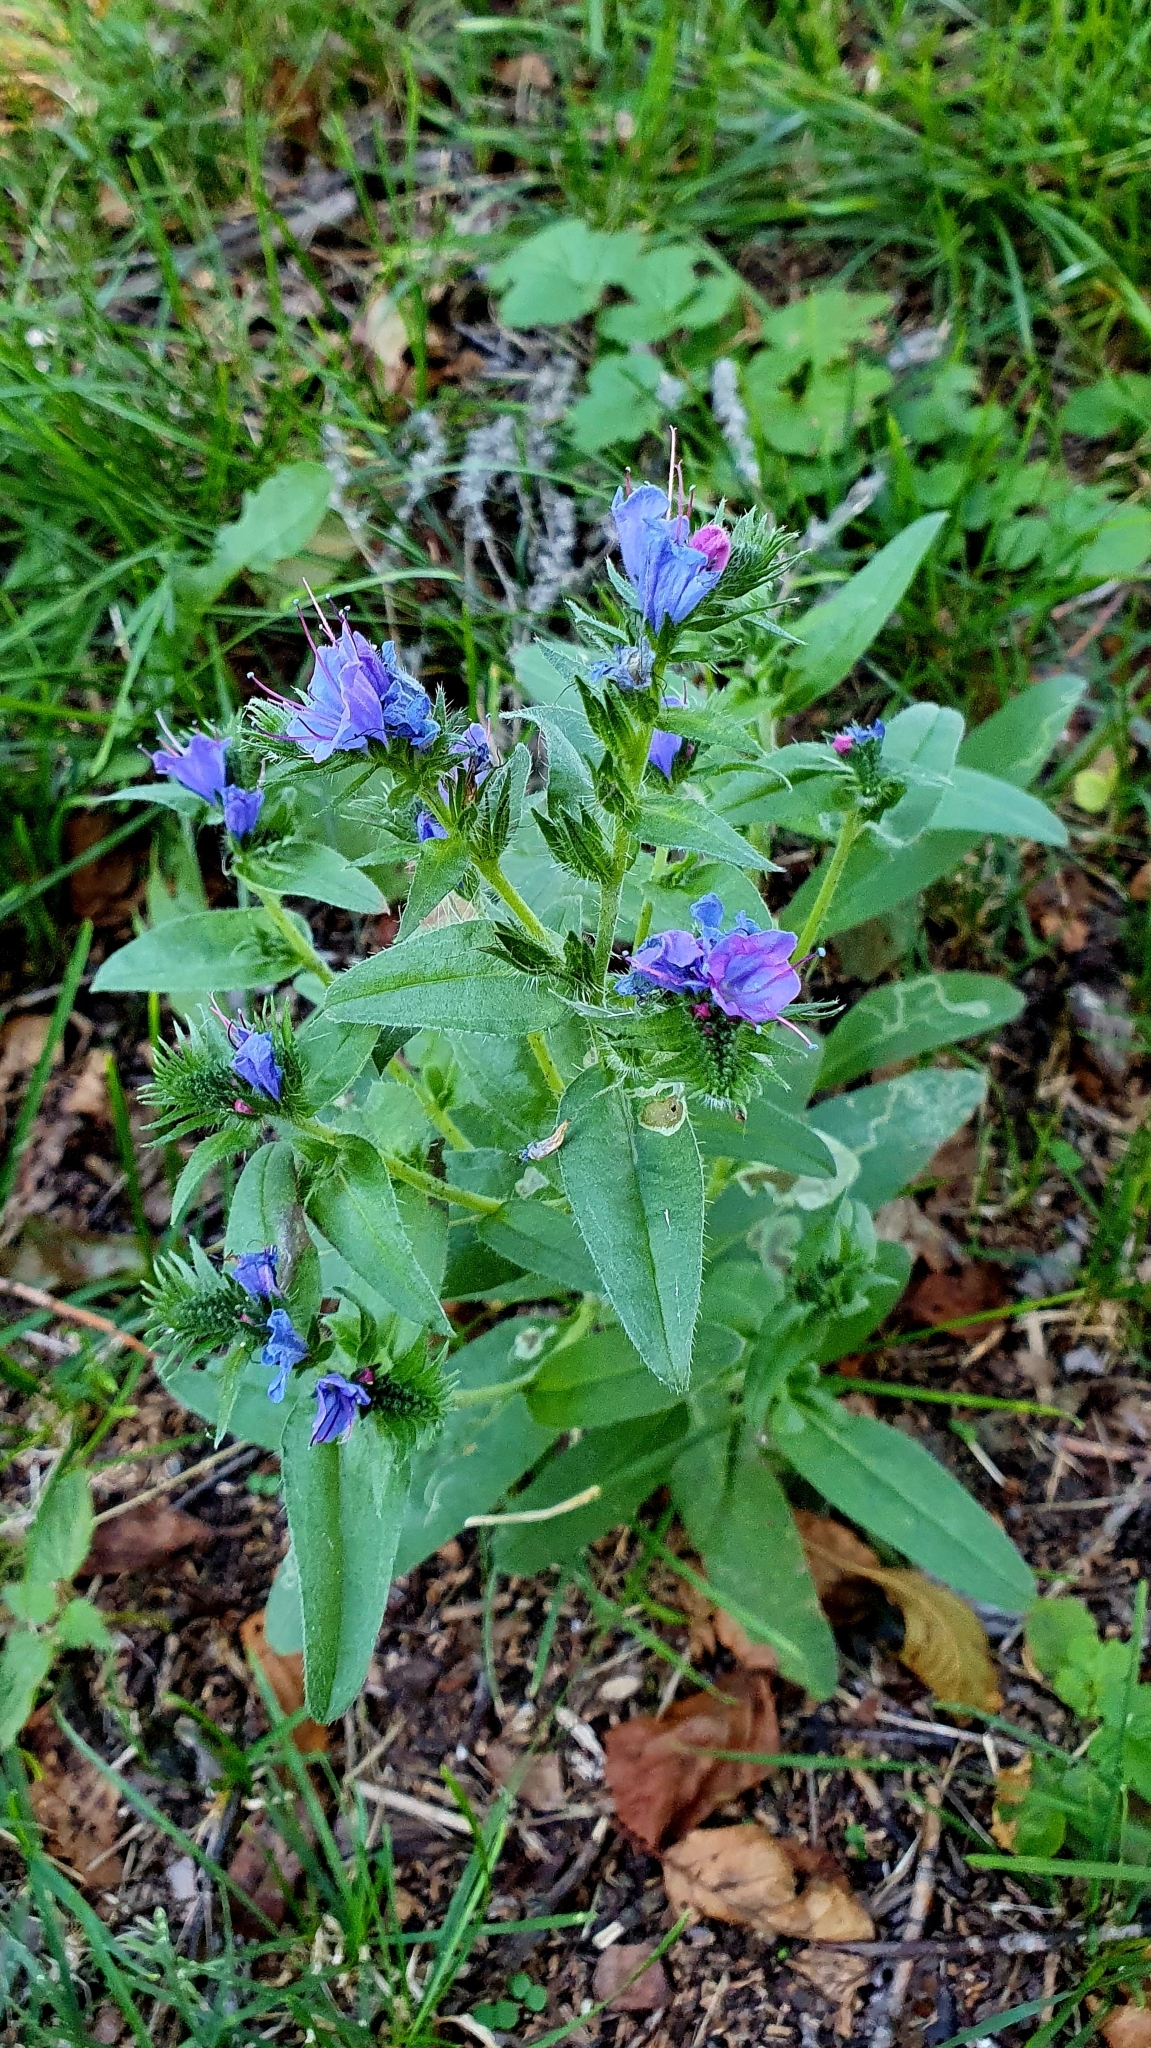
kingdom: Plantae
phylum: Tracheophyta
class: Magnoliopsida
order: Boraginales
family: Boraginaceae
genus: Echium
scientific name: Echium vulgare
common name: Common viper's bugloss
